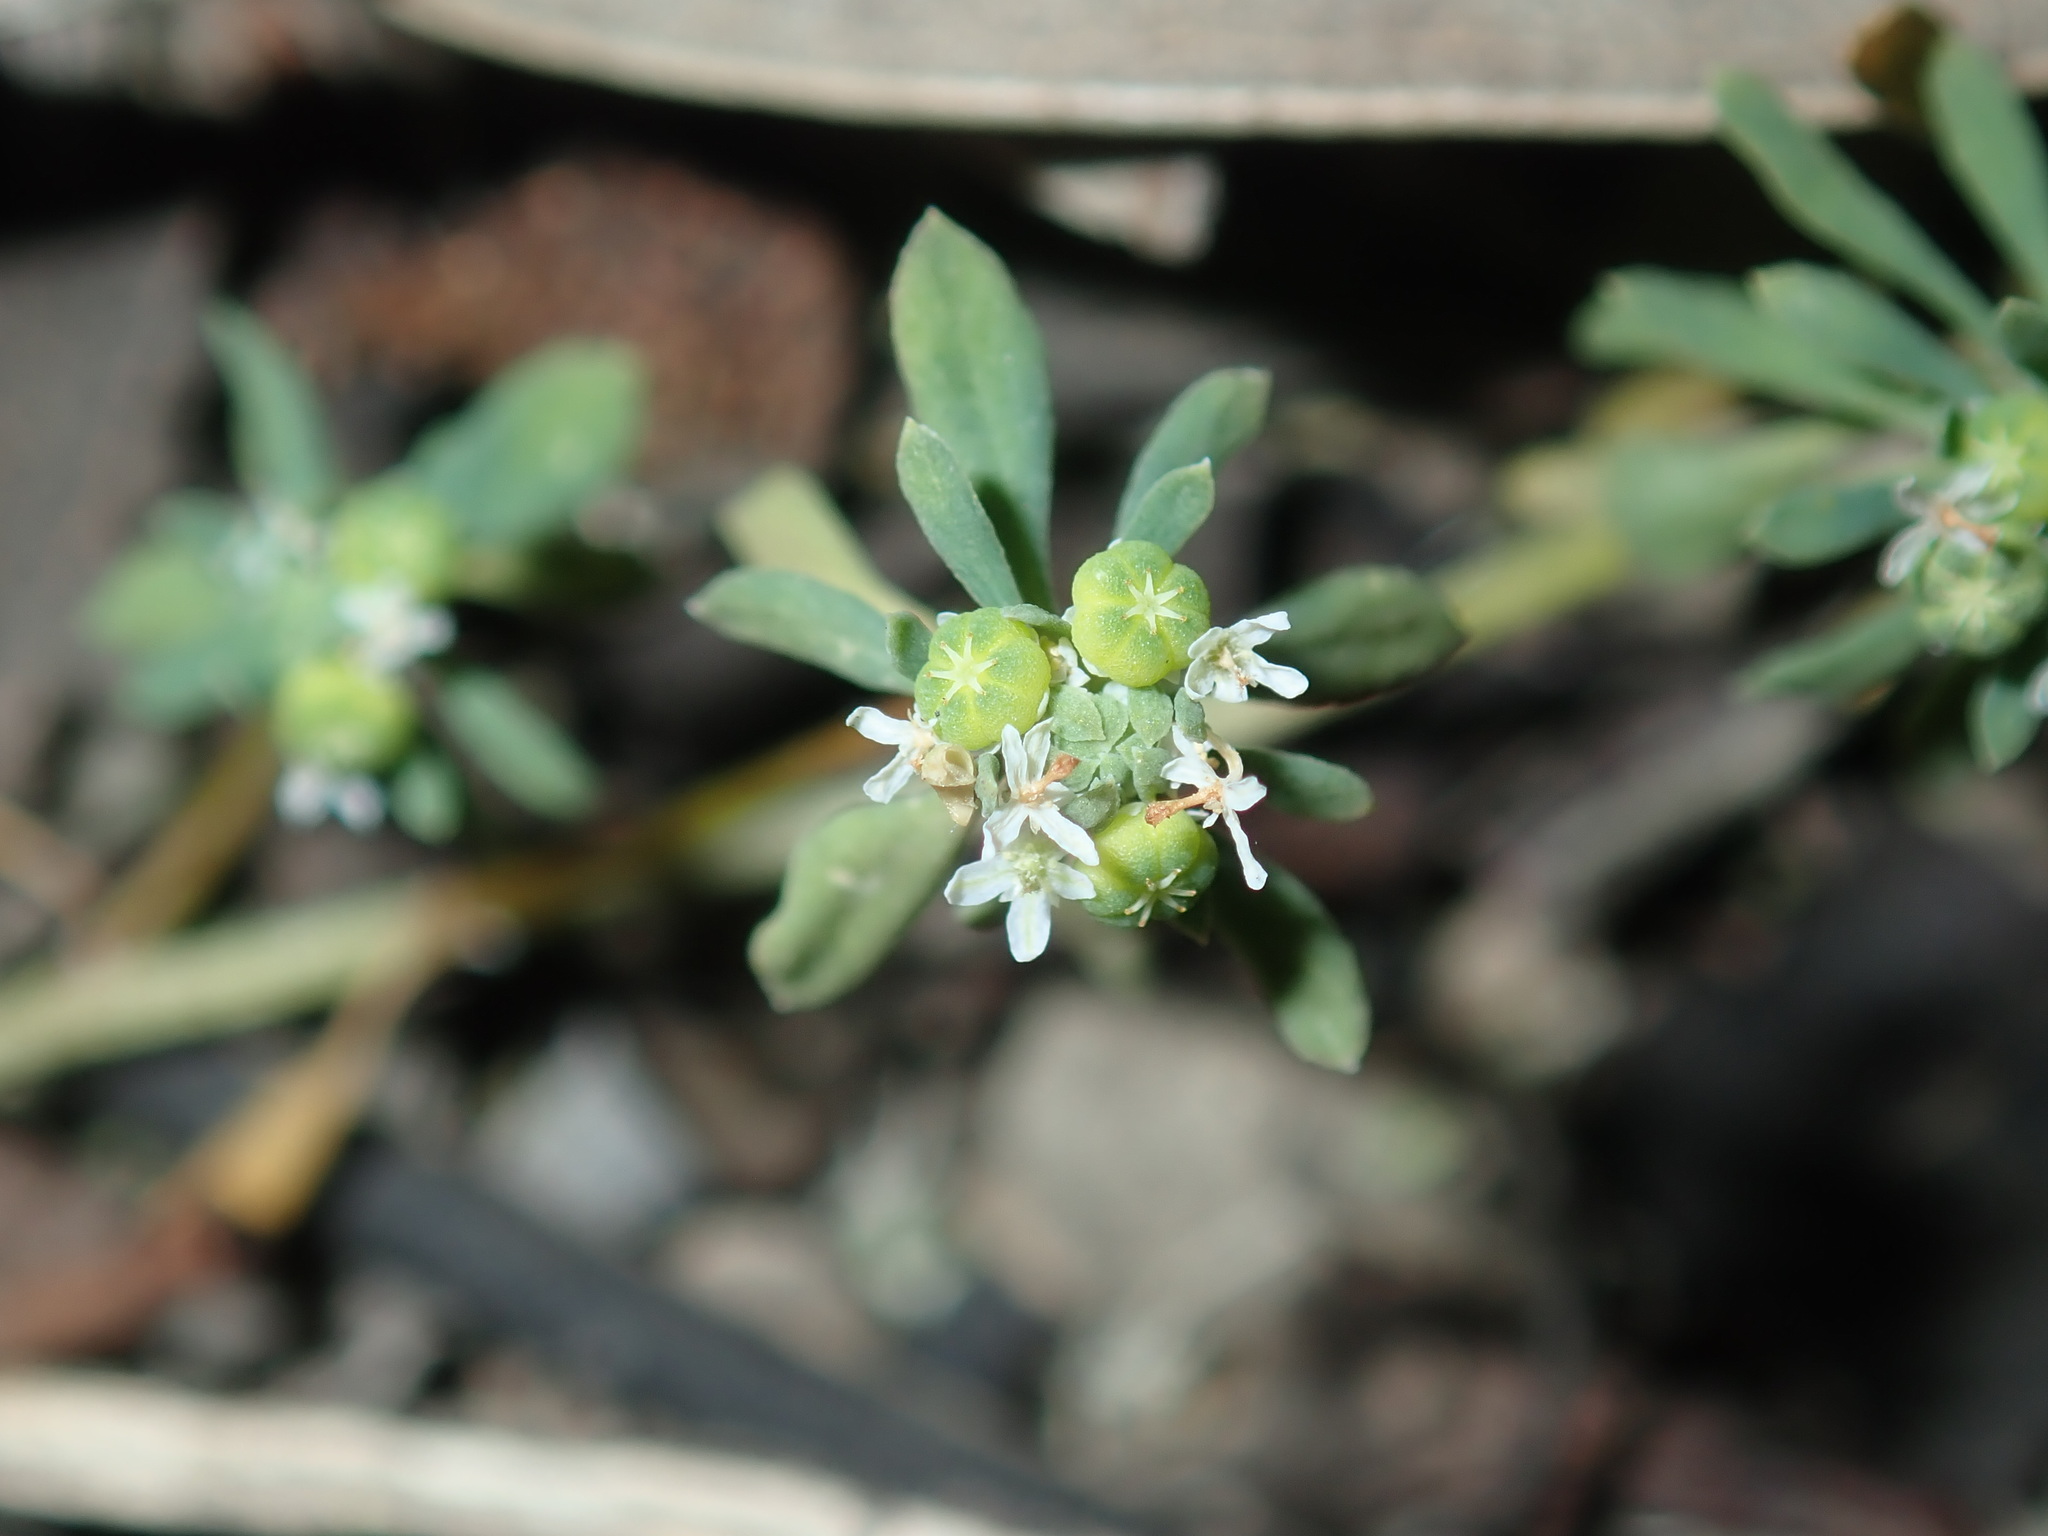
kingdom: Plantae
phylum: Tracheophyta
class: Magnoliopsida
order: Malpighiales
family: Phyllanthaceae
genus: Poranthera
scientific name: Poranthera microphylla
